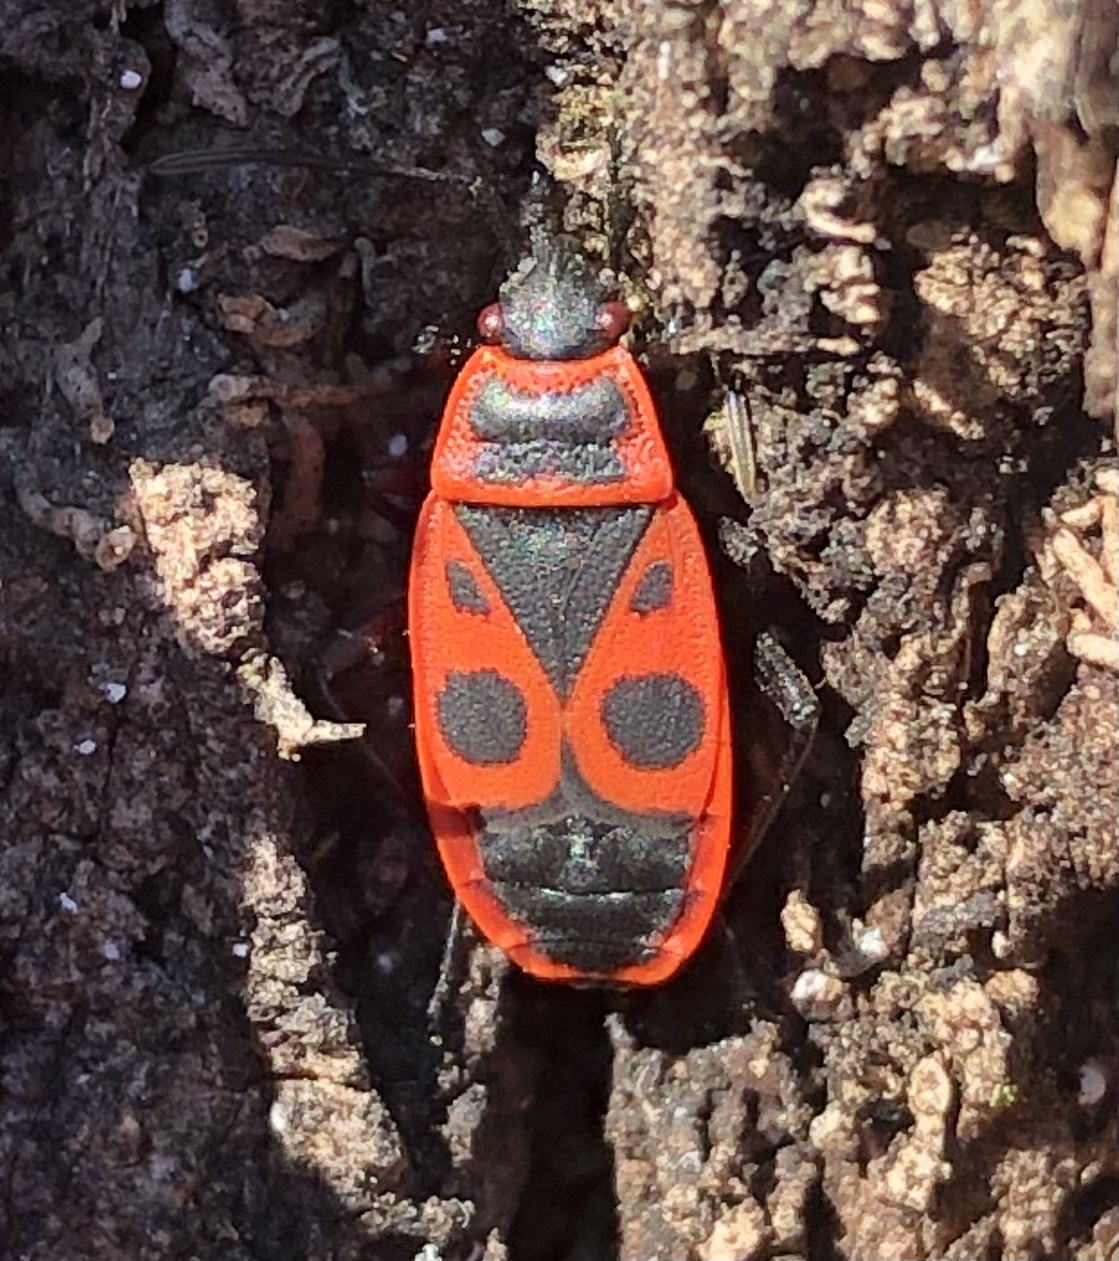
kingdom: Animalia
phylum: Arthropoda
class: Insecta
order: Hemiptera
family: Pyrrhocoridae
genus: Pyrrhocoris
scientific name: Pyrrhocoris apterus
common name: Firebug
